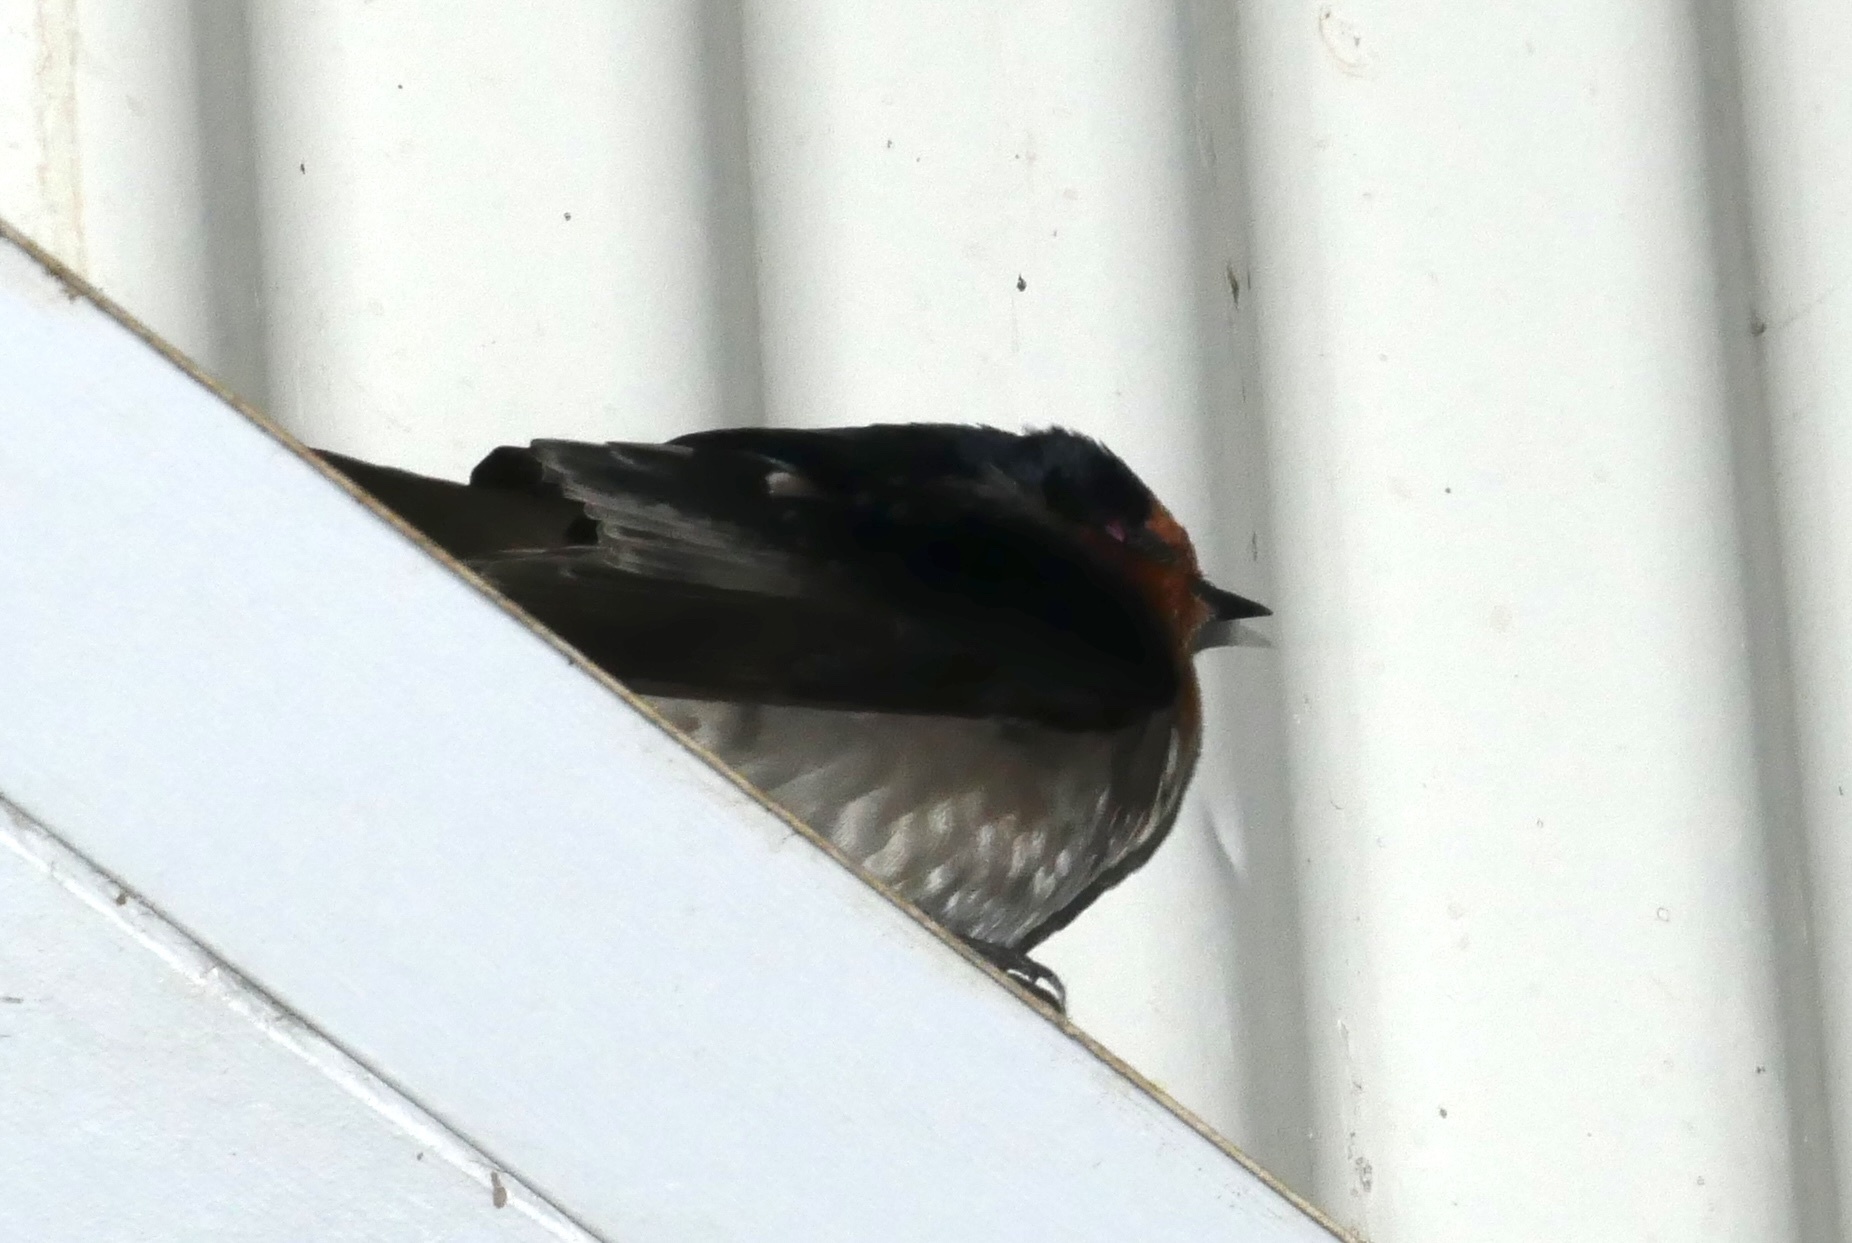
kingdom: Animalia
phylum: Chordata
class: Aves
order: Passeriformes
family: Hirundinidae
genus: Hirundo
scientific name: Hirundo neoxena
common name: Welcome swallow
